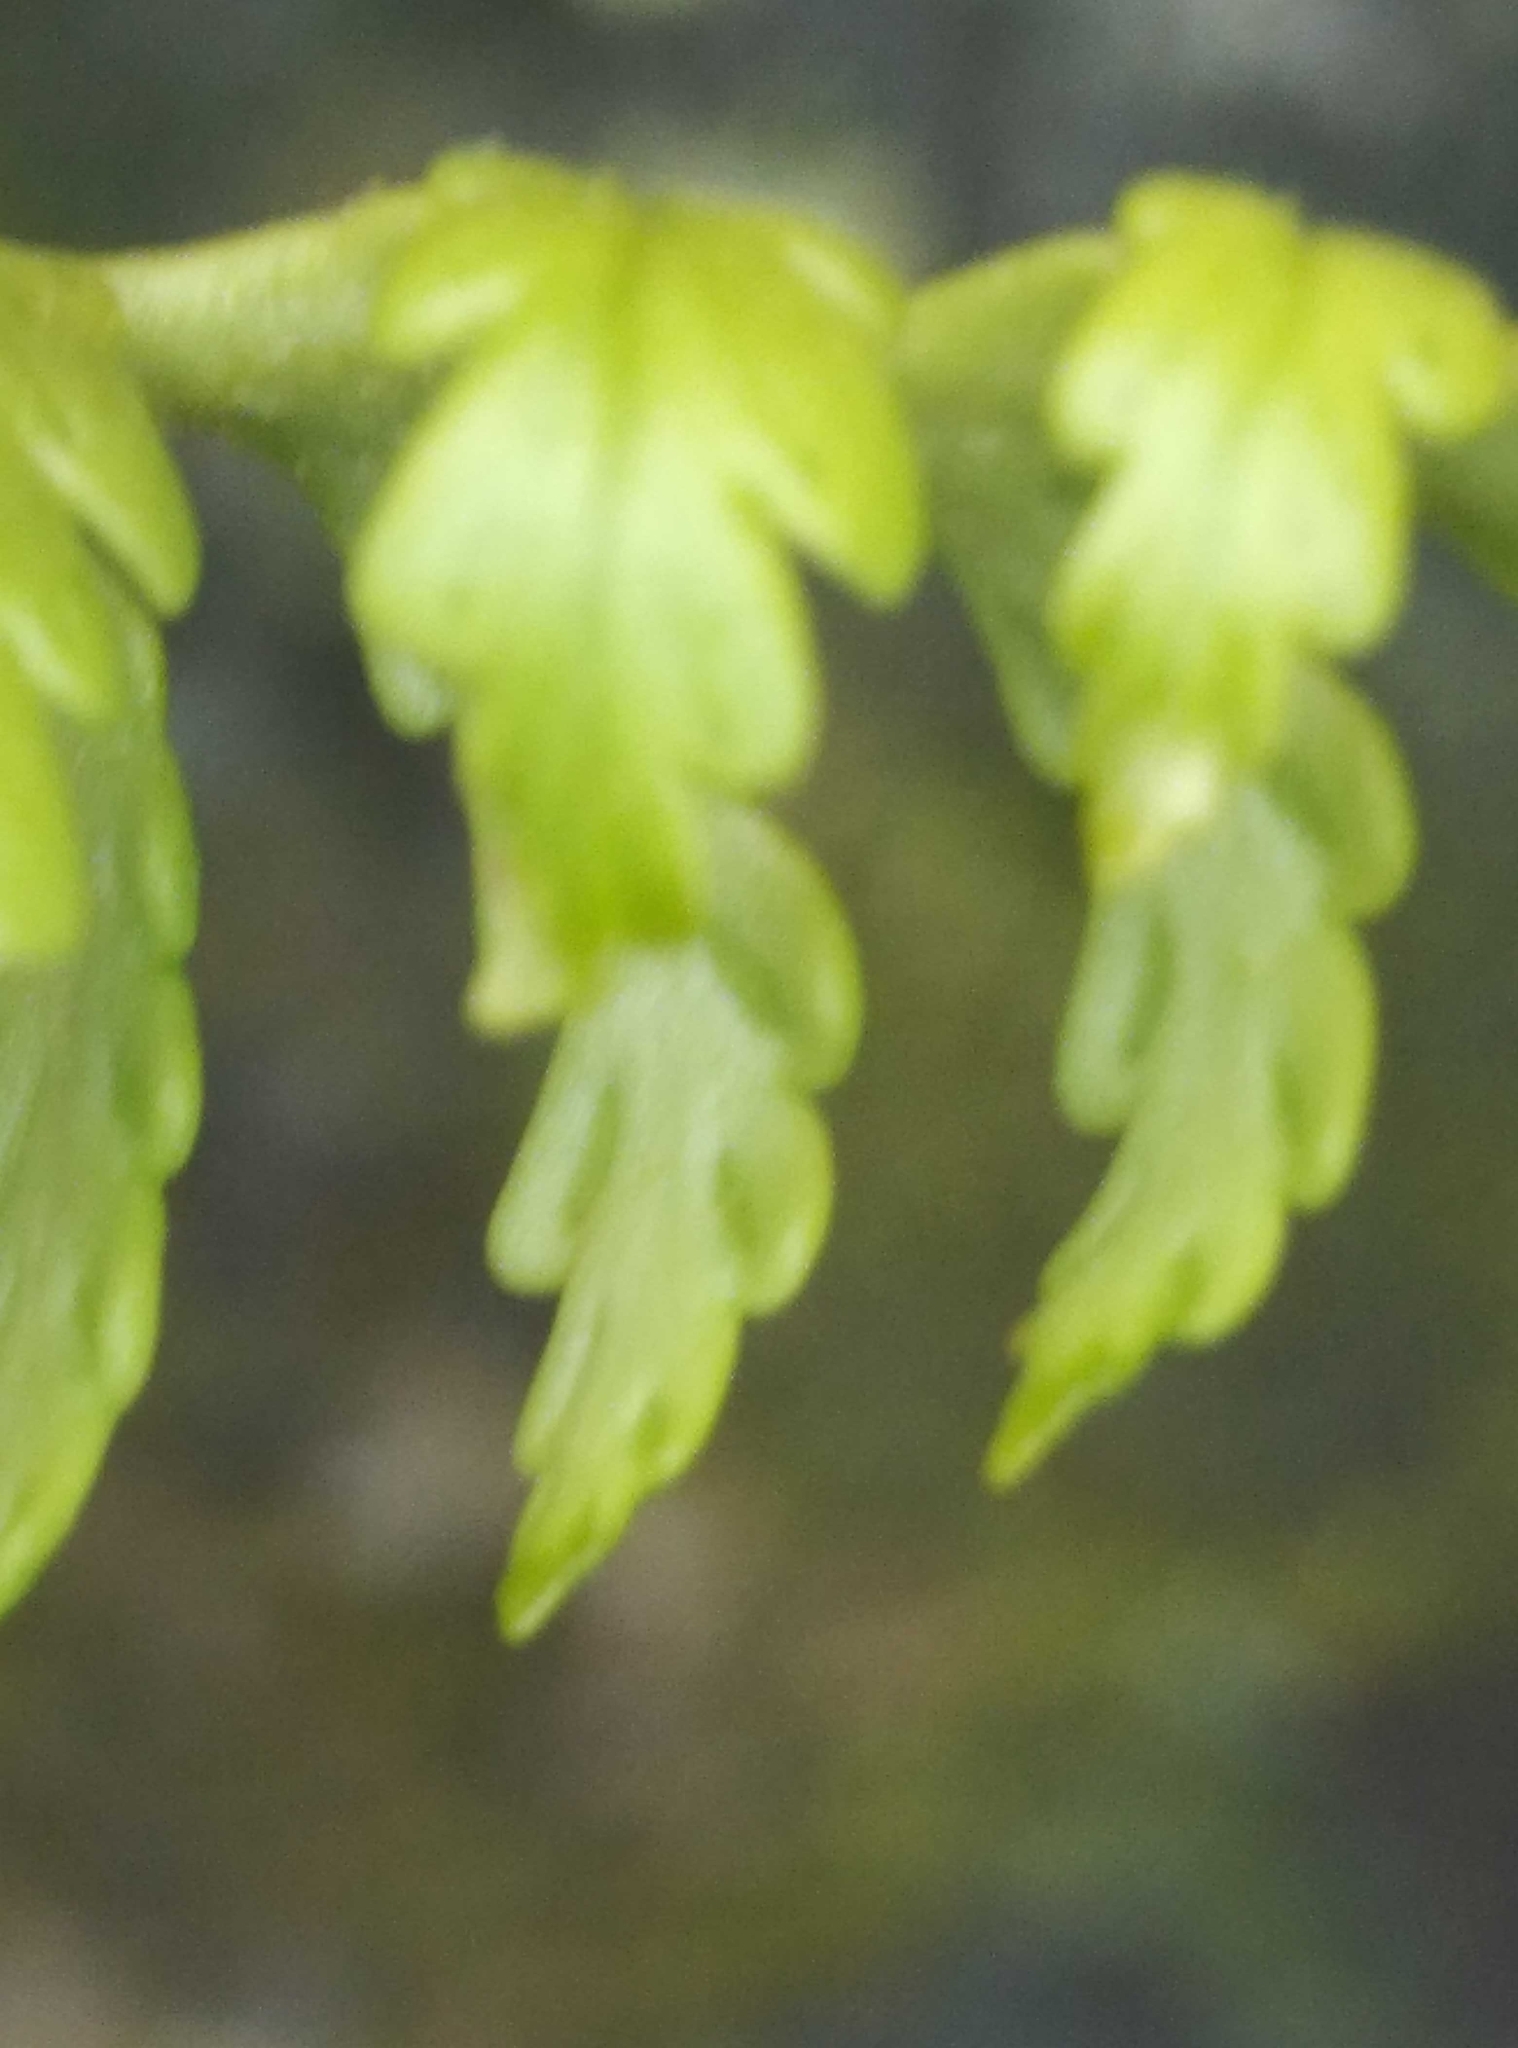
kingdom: Plantae
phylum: Tracheophyta
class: Polypodiopsida
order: Polypodiales
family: Polypodiaceae
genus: Notogrammitis
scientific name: Notogrammitis heterophylla
